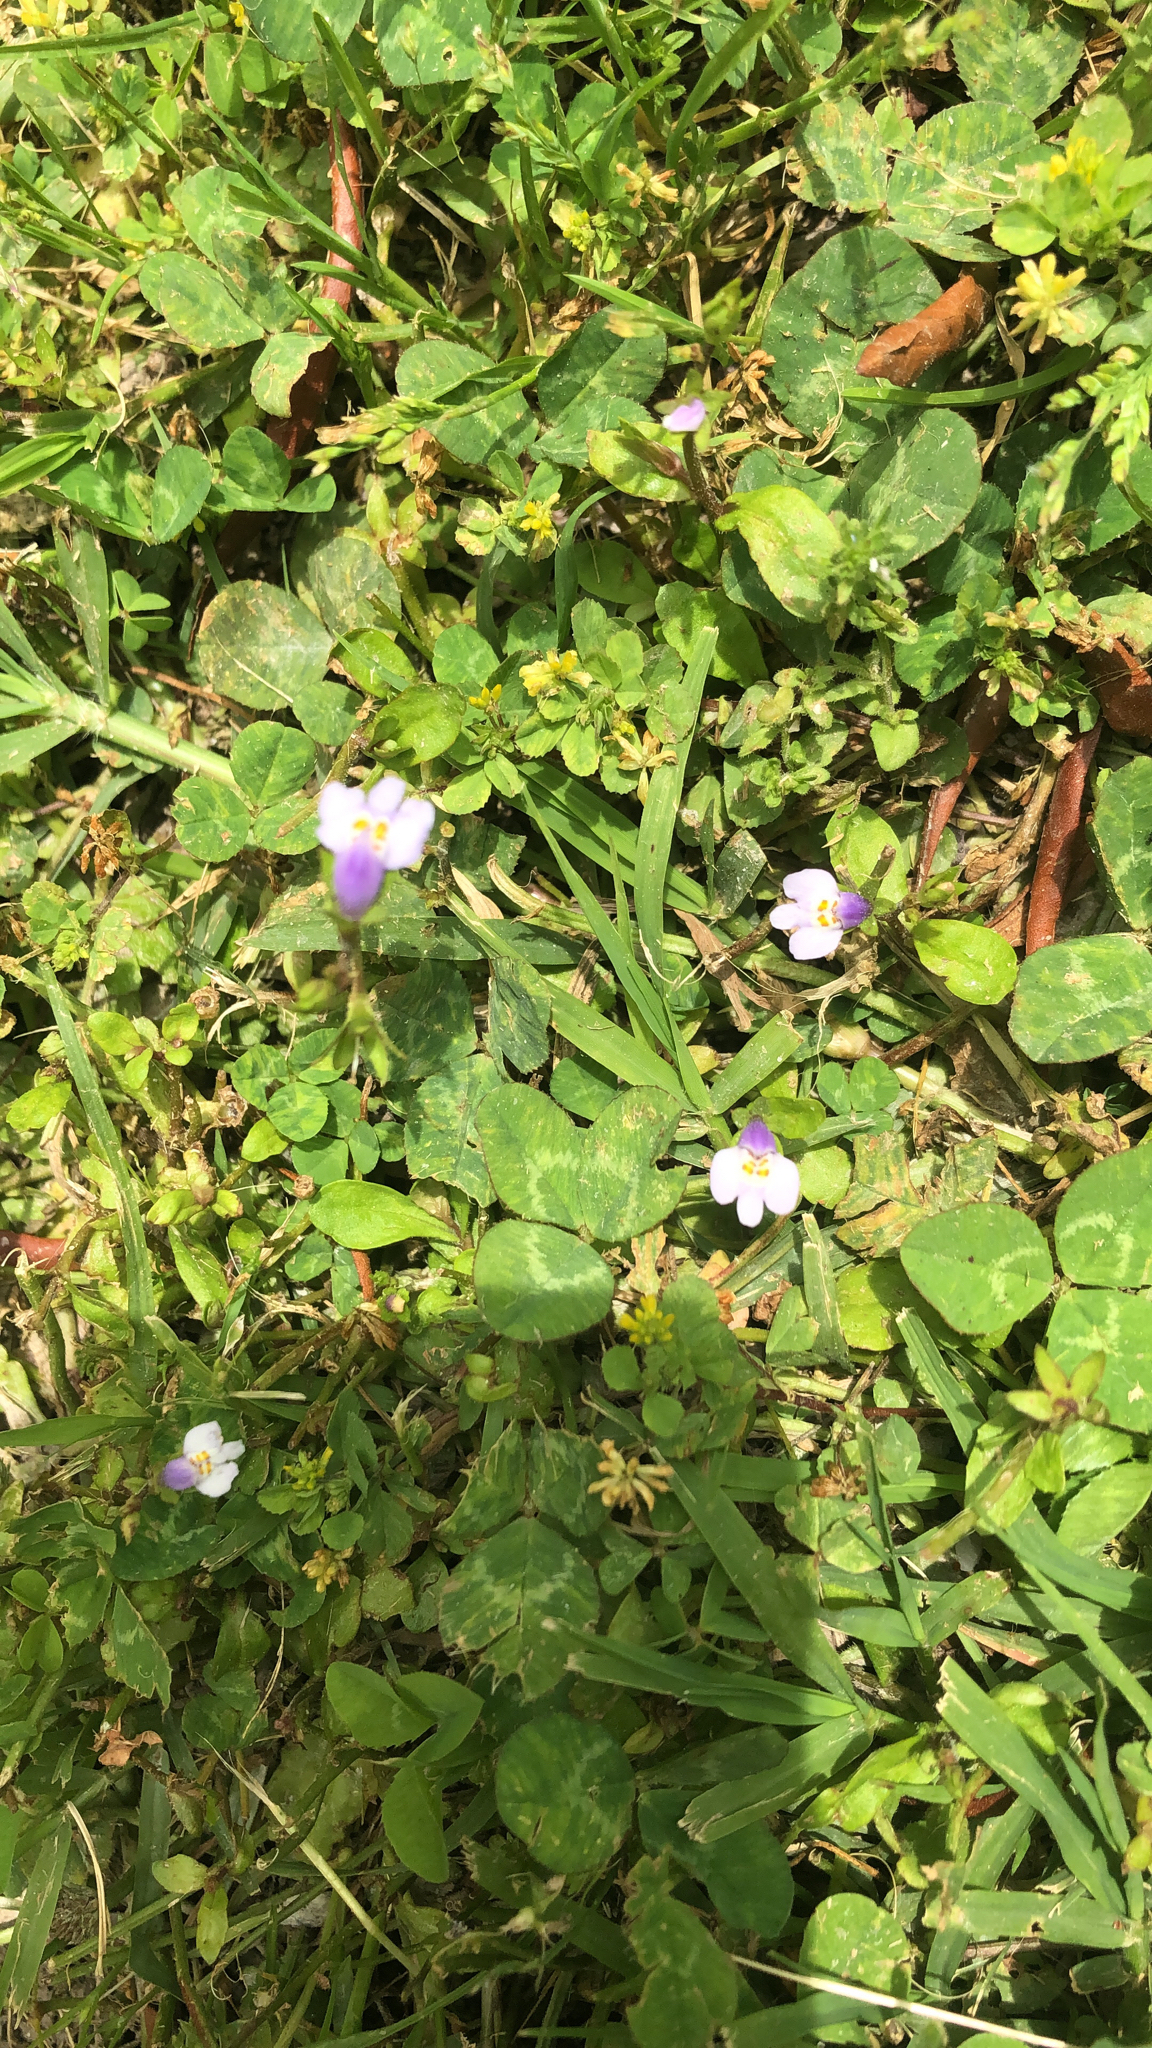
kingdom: Plantae
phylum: Tracheophyta
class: Magnoliopsida
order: Lamiales
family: Mazaceae
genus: Mazus
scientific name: Mazus pumilus
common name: Japanese mazus
